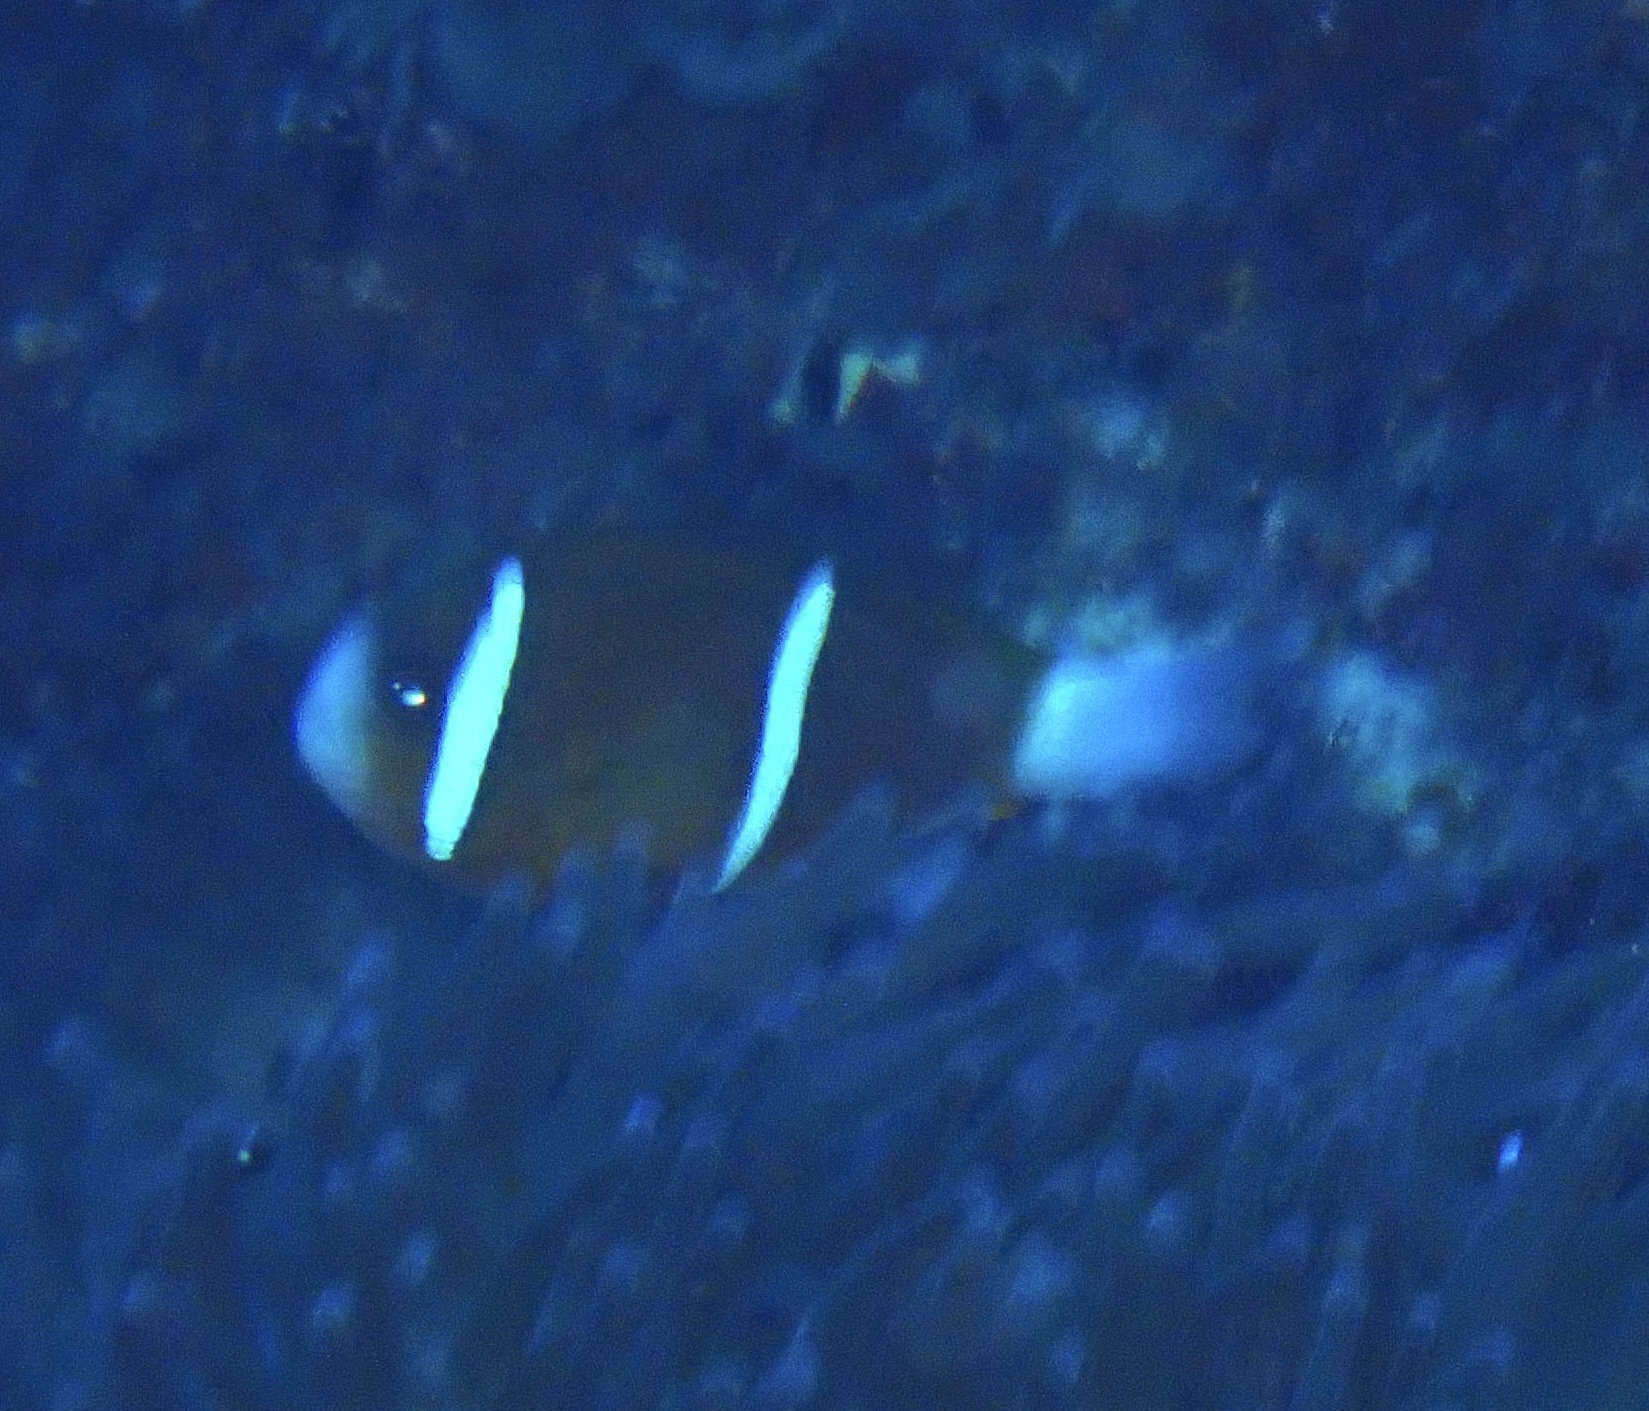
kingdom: Animalia
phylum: Chordata
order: Perciformes
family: Pomacentridae
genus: Amphiprion
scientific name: Amphiprion akindynos
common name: Barrier reef anemonefish
